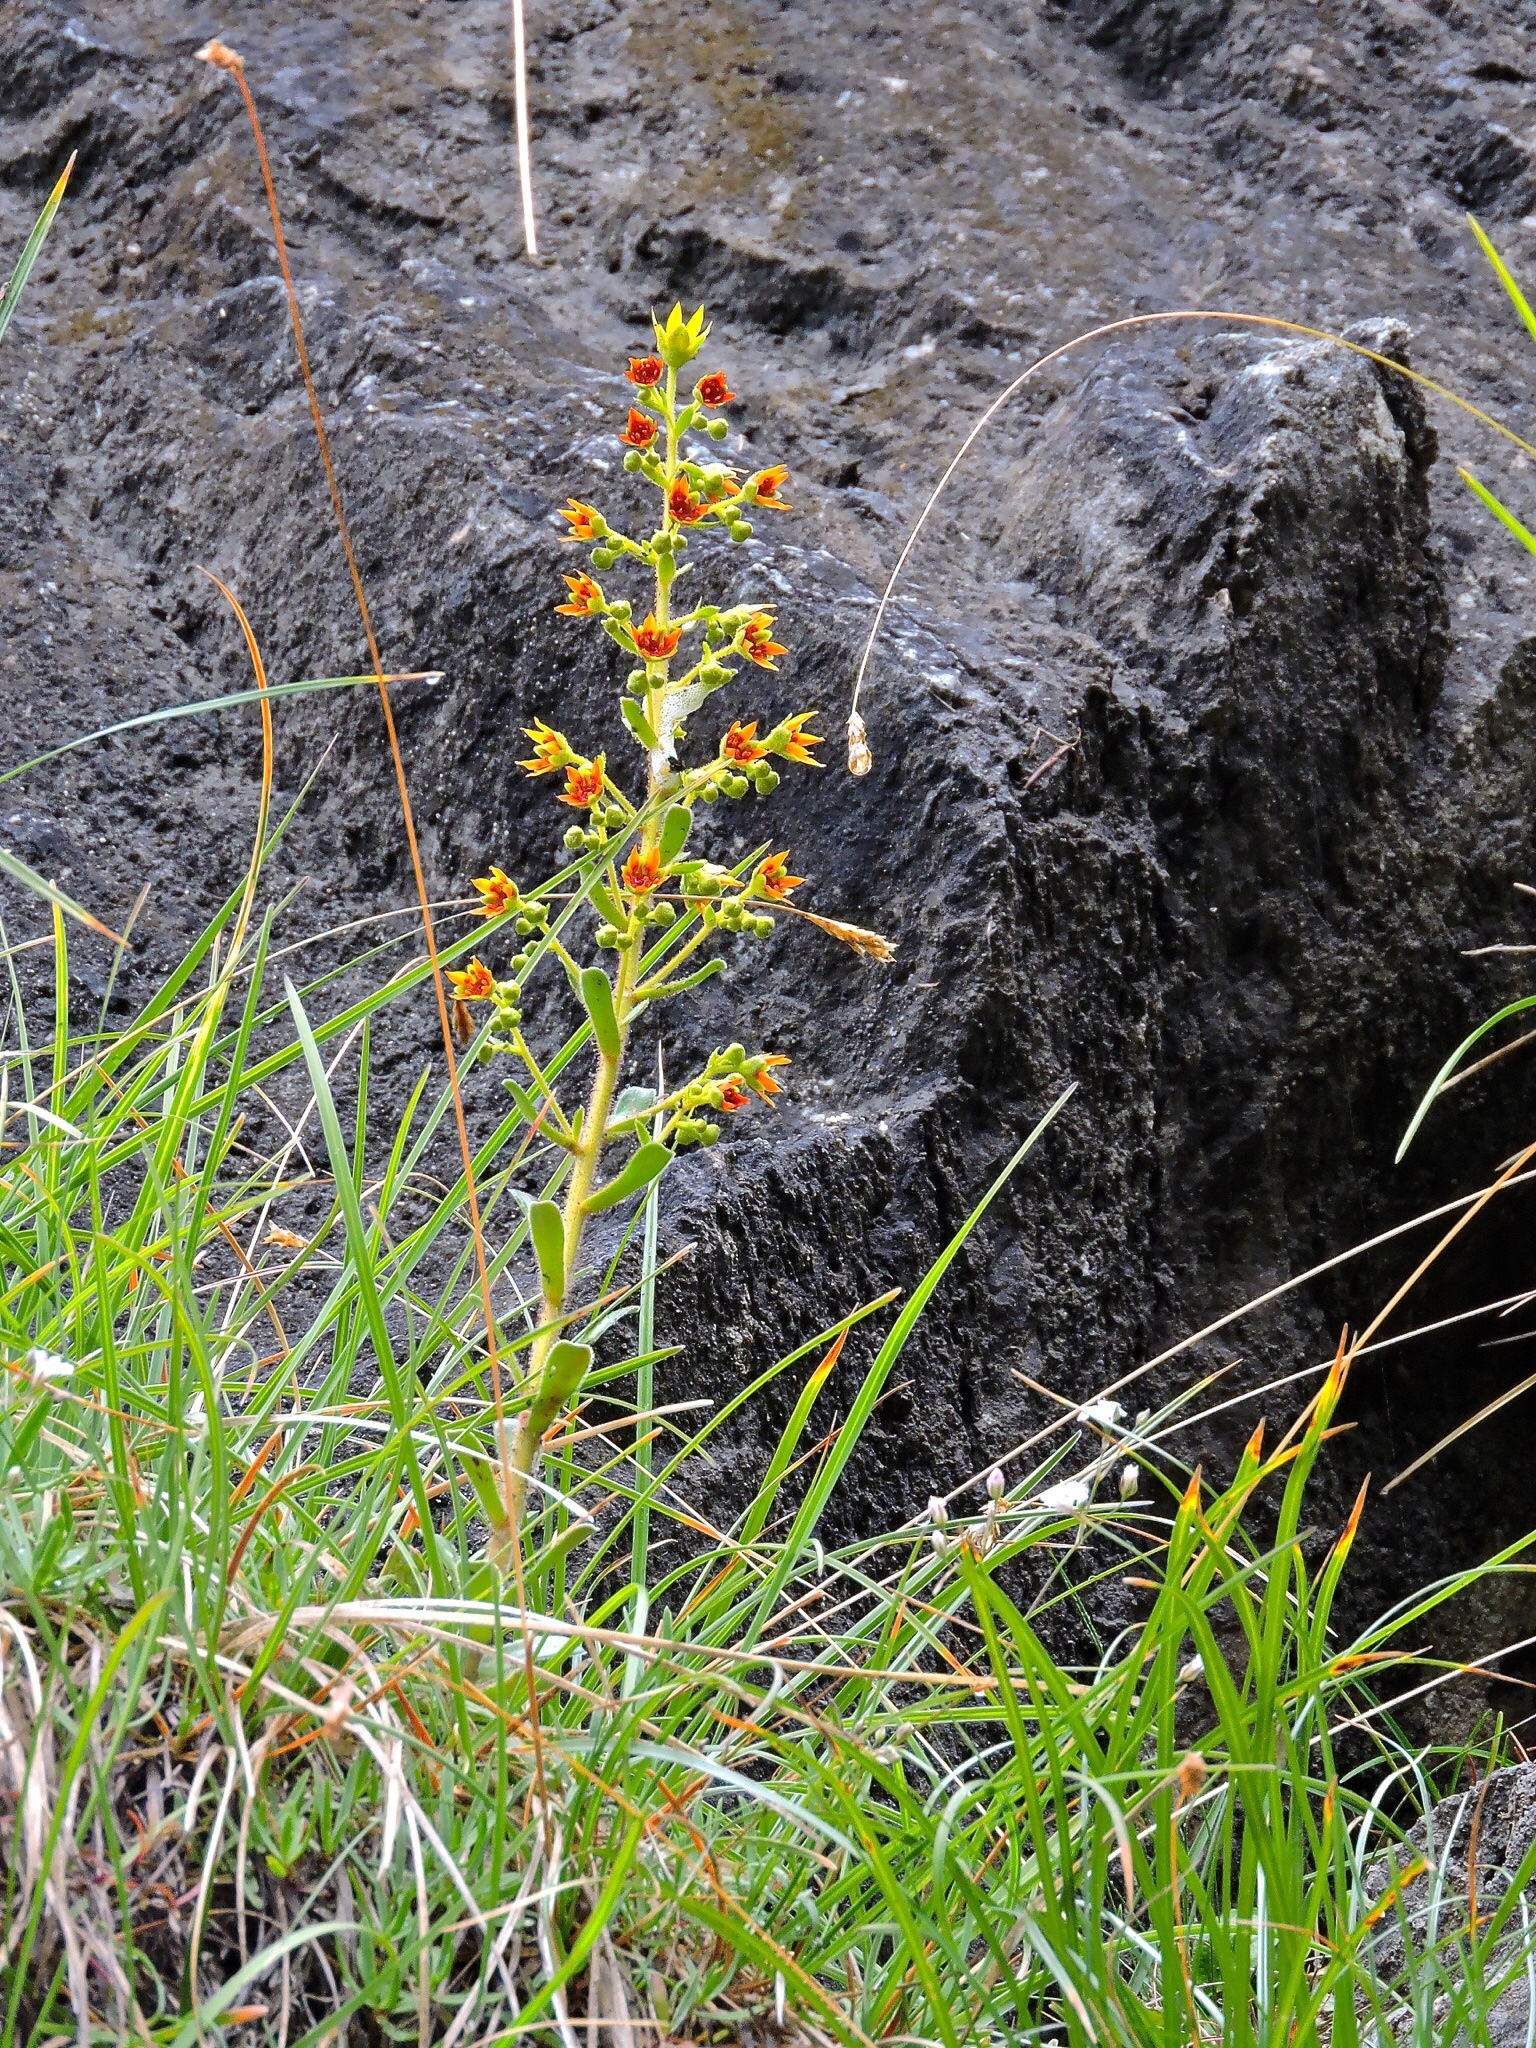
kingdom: Plantae
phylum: Tracheophyta
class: Magnoliopsida
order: Saxifragales
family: Saxifragaceae
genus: Saxifraga
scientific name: Saxifraga mutata
